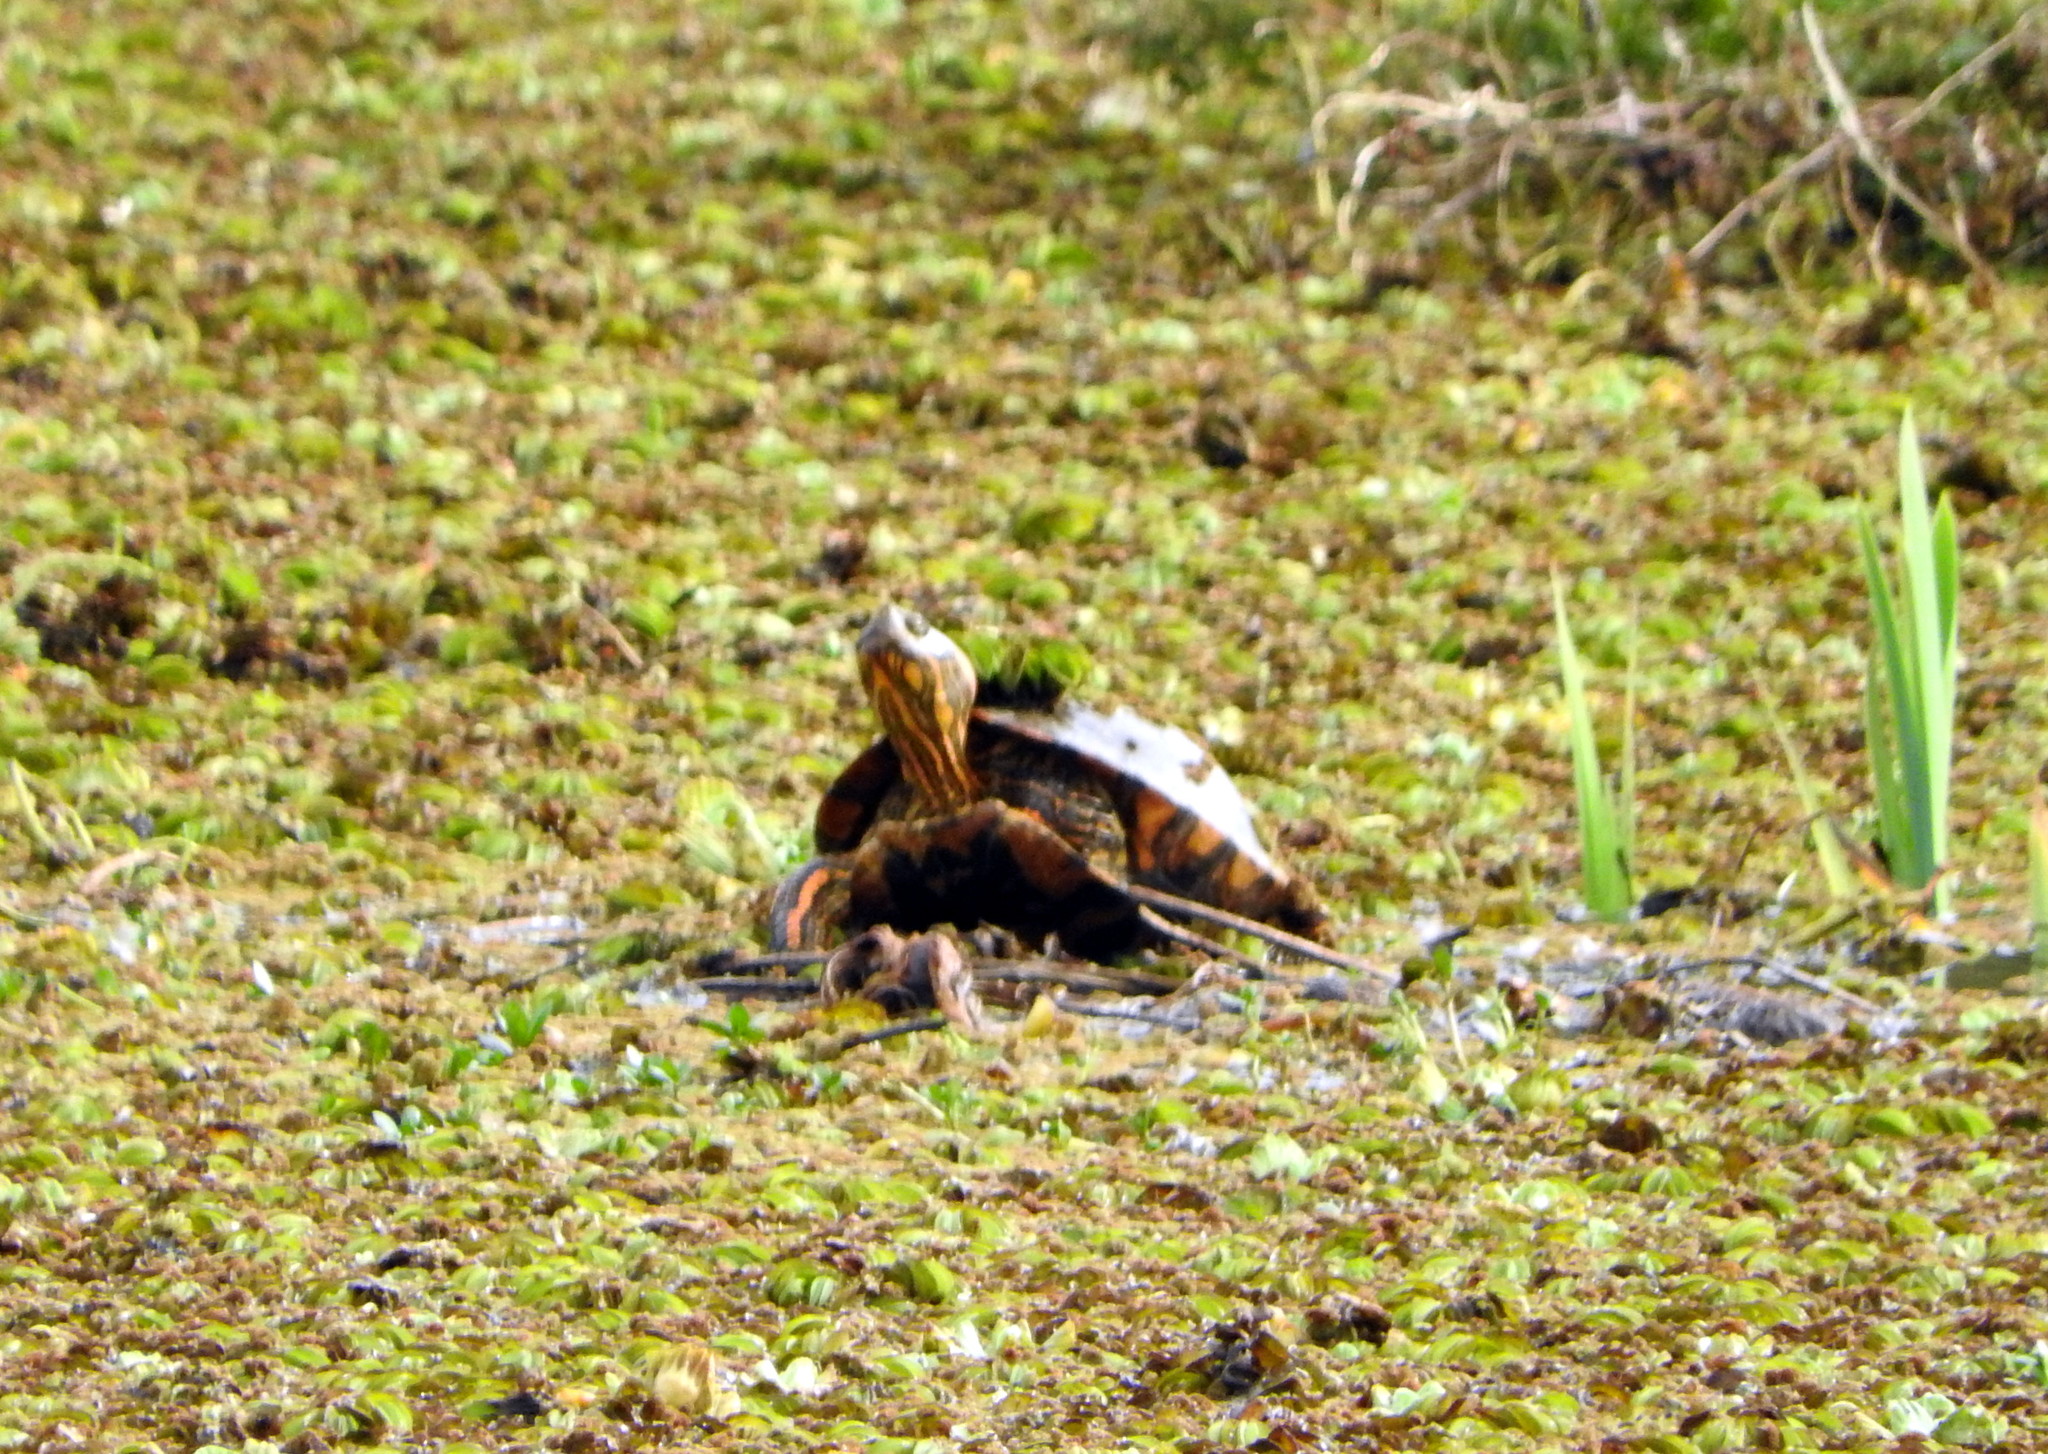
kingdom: Animalia
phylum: Chordata
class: Testudines
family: Emydidae
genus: Trachemys
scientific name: Trachemys dorbigni
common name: Black-bellied slider
